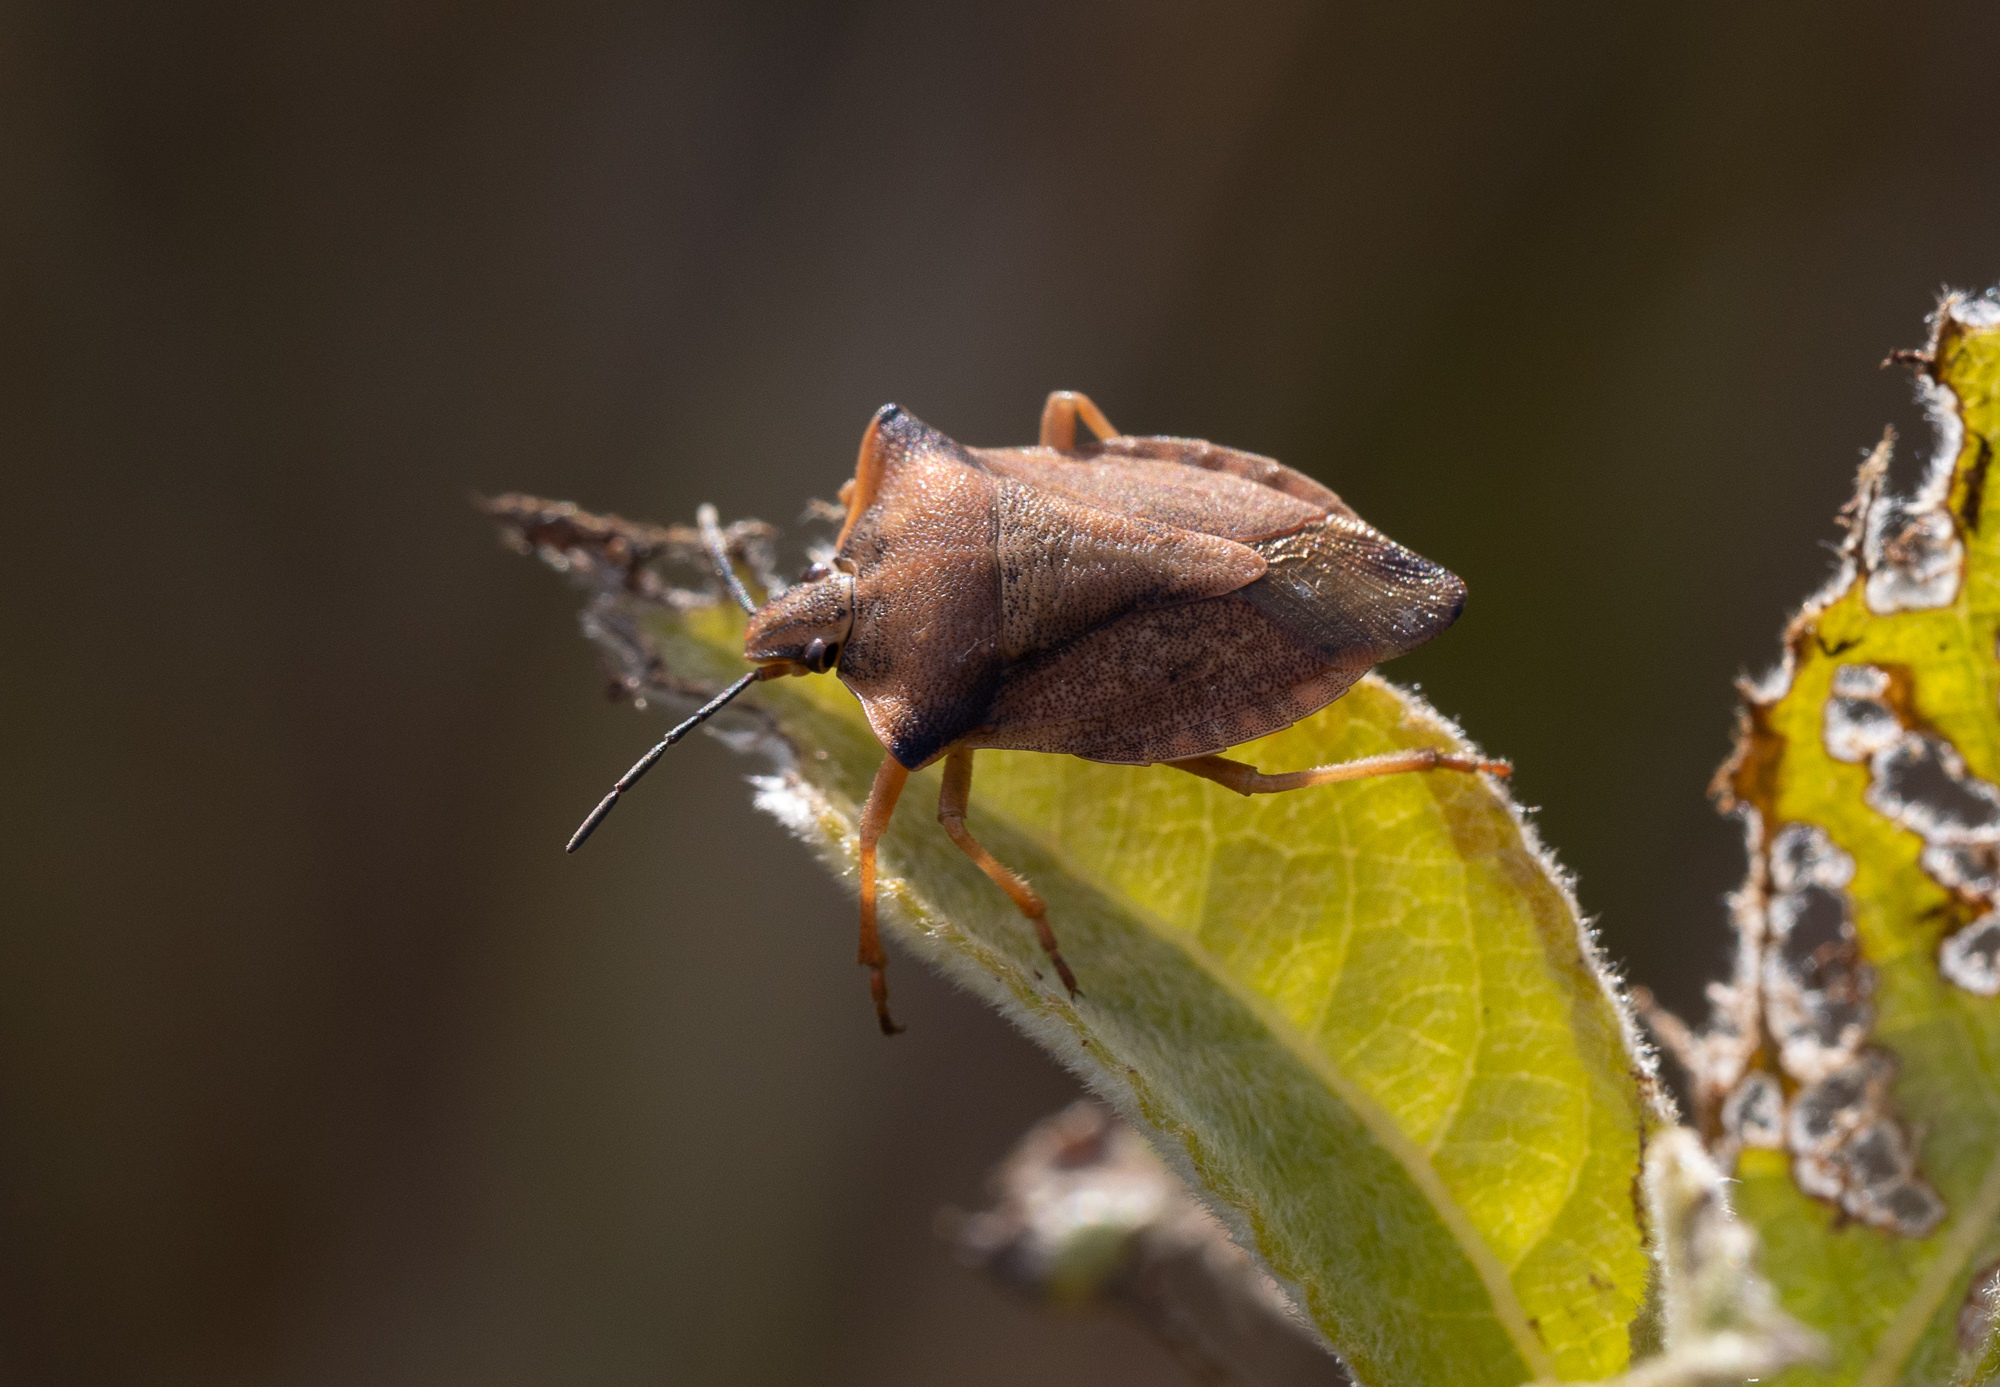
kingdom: Animalia
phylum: Arthropoda
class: Insecta
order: Hemiptera
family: Pentatomidae
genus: Carpocoris
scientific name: Carpocoris fuscispinus
